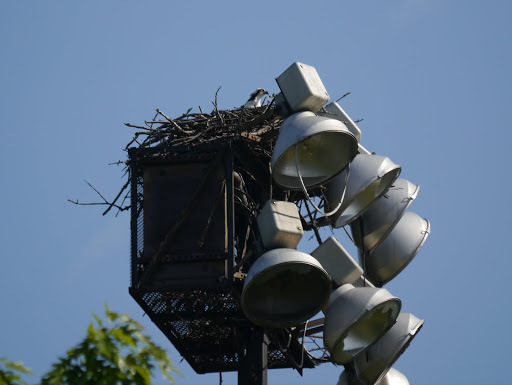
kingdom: Animalia
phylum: Chordata
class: Aves
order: Accipitriformes
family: Pandionidae
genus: Pandion
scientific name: Pandion haliaetus
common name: Osprey
